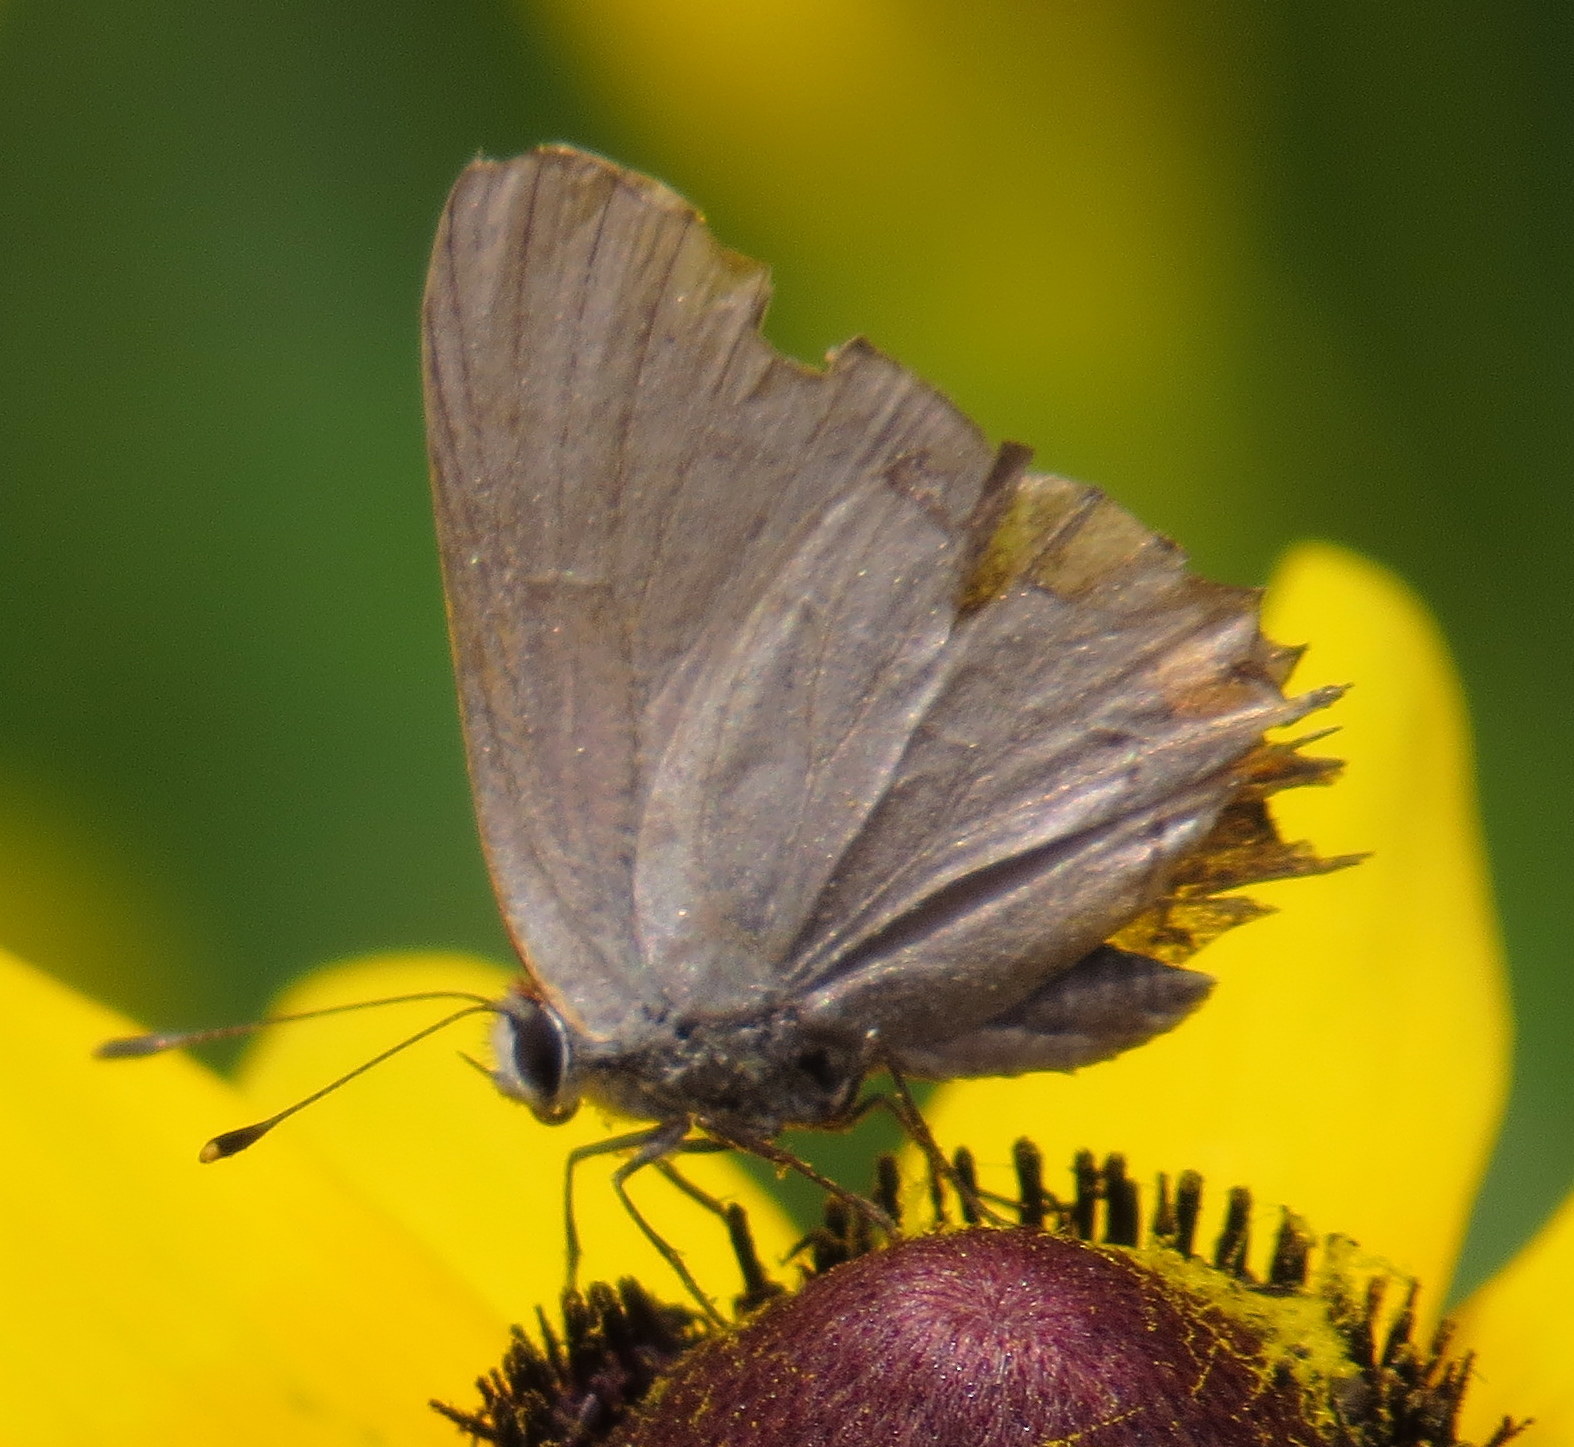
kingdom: Animalia
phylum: Arthropoda
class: Insecta
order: Lepidoptera
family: Lycaenidae
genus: Strymon
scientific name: Strymon melinus
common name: Gray hairstreak
